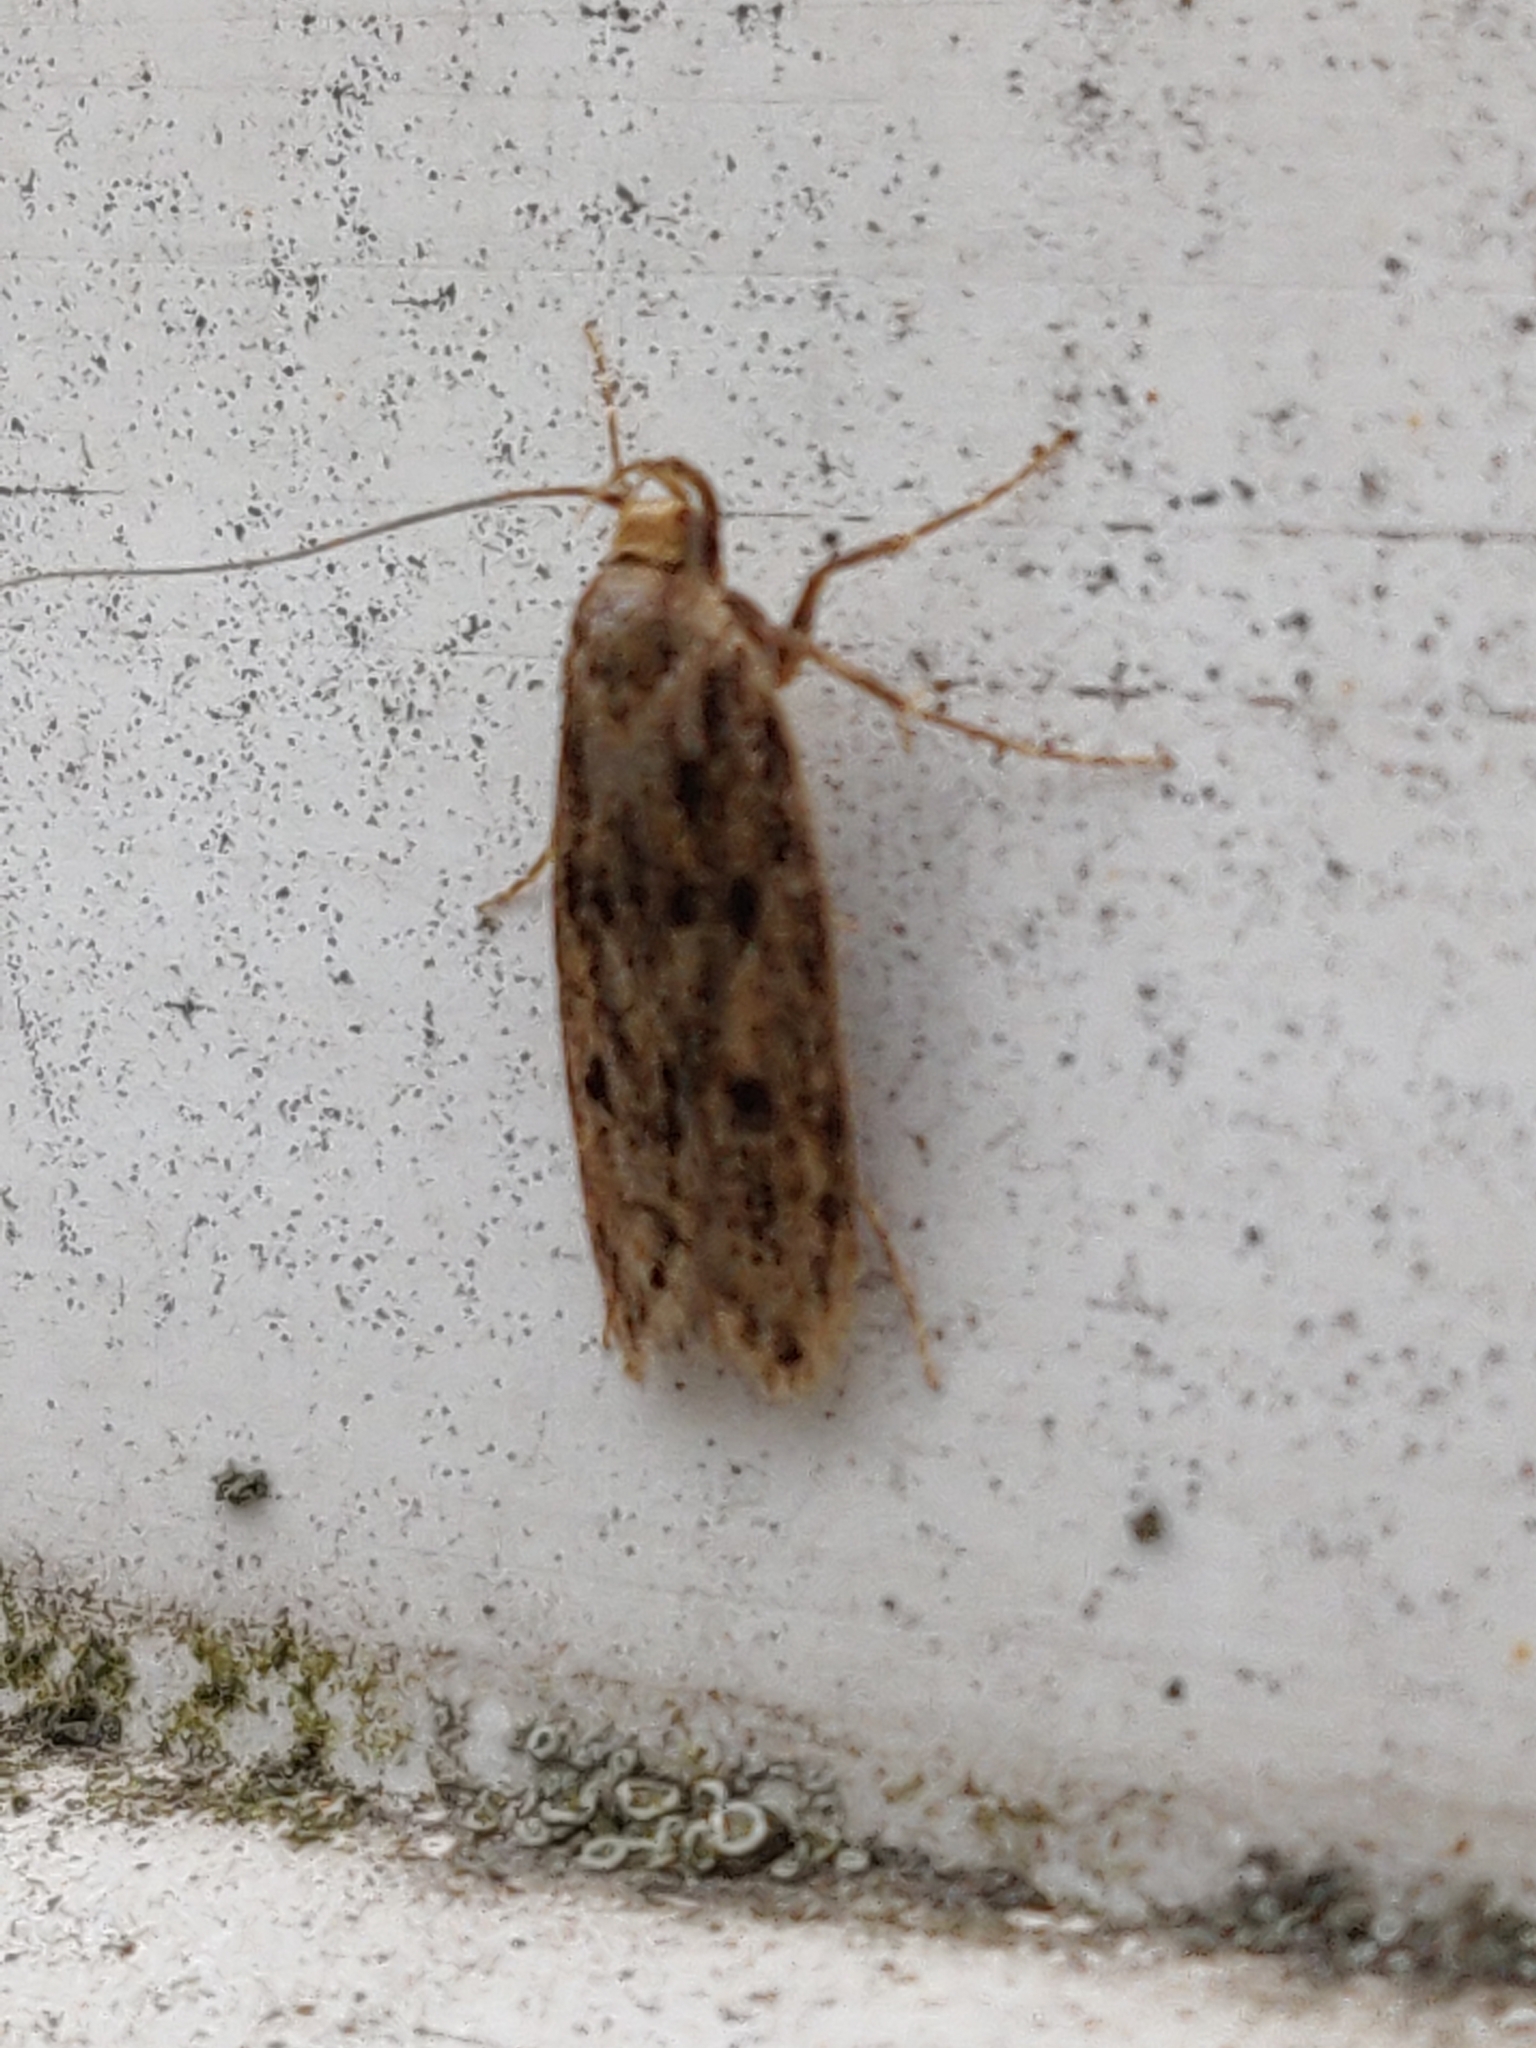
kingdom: Animalia
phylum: Arthropoda
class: Insecta
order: Lepidoptera
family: Oecophoridae
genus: Hofmannophila
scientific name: Hofmannophila pseudospretella
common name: Brown house moth
